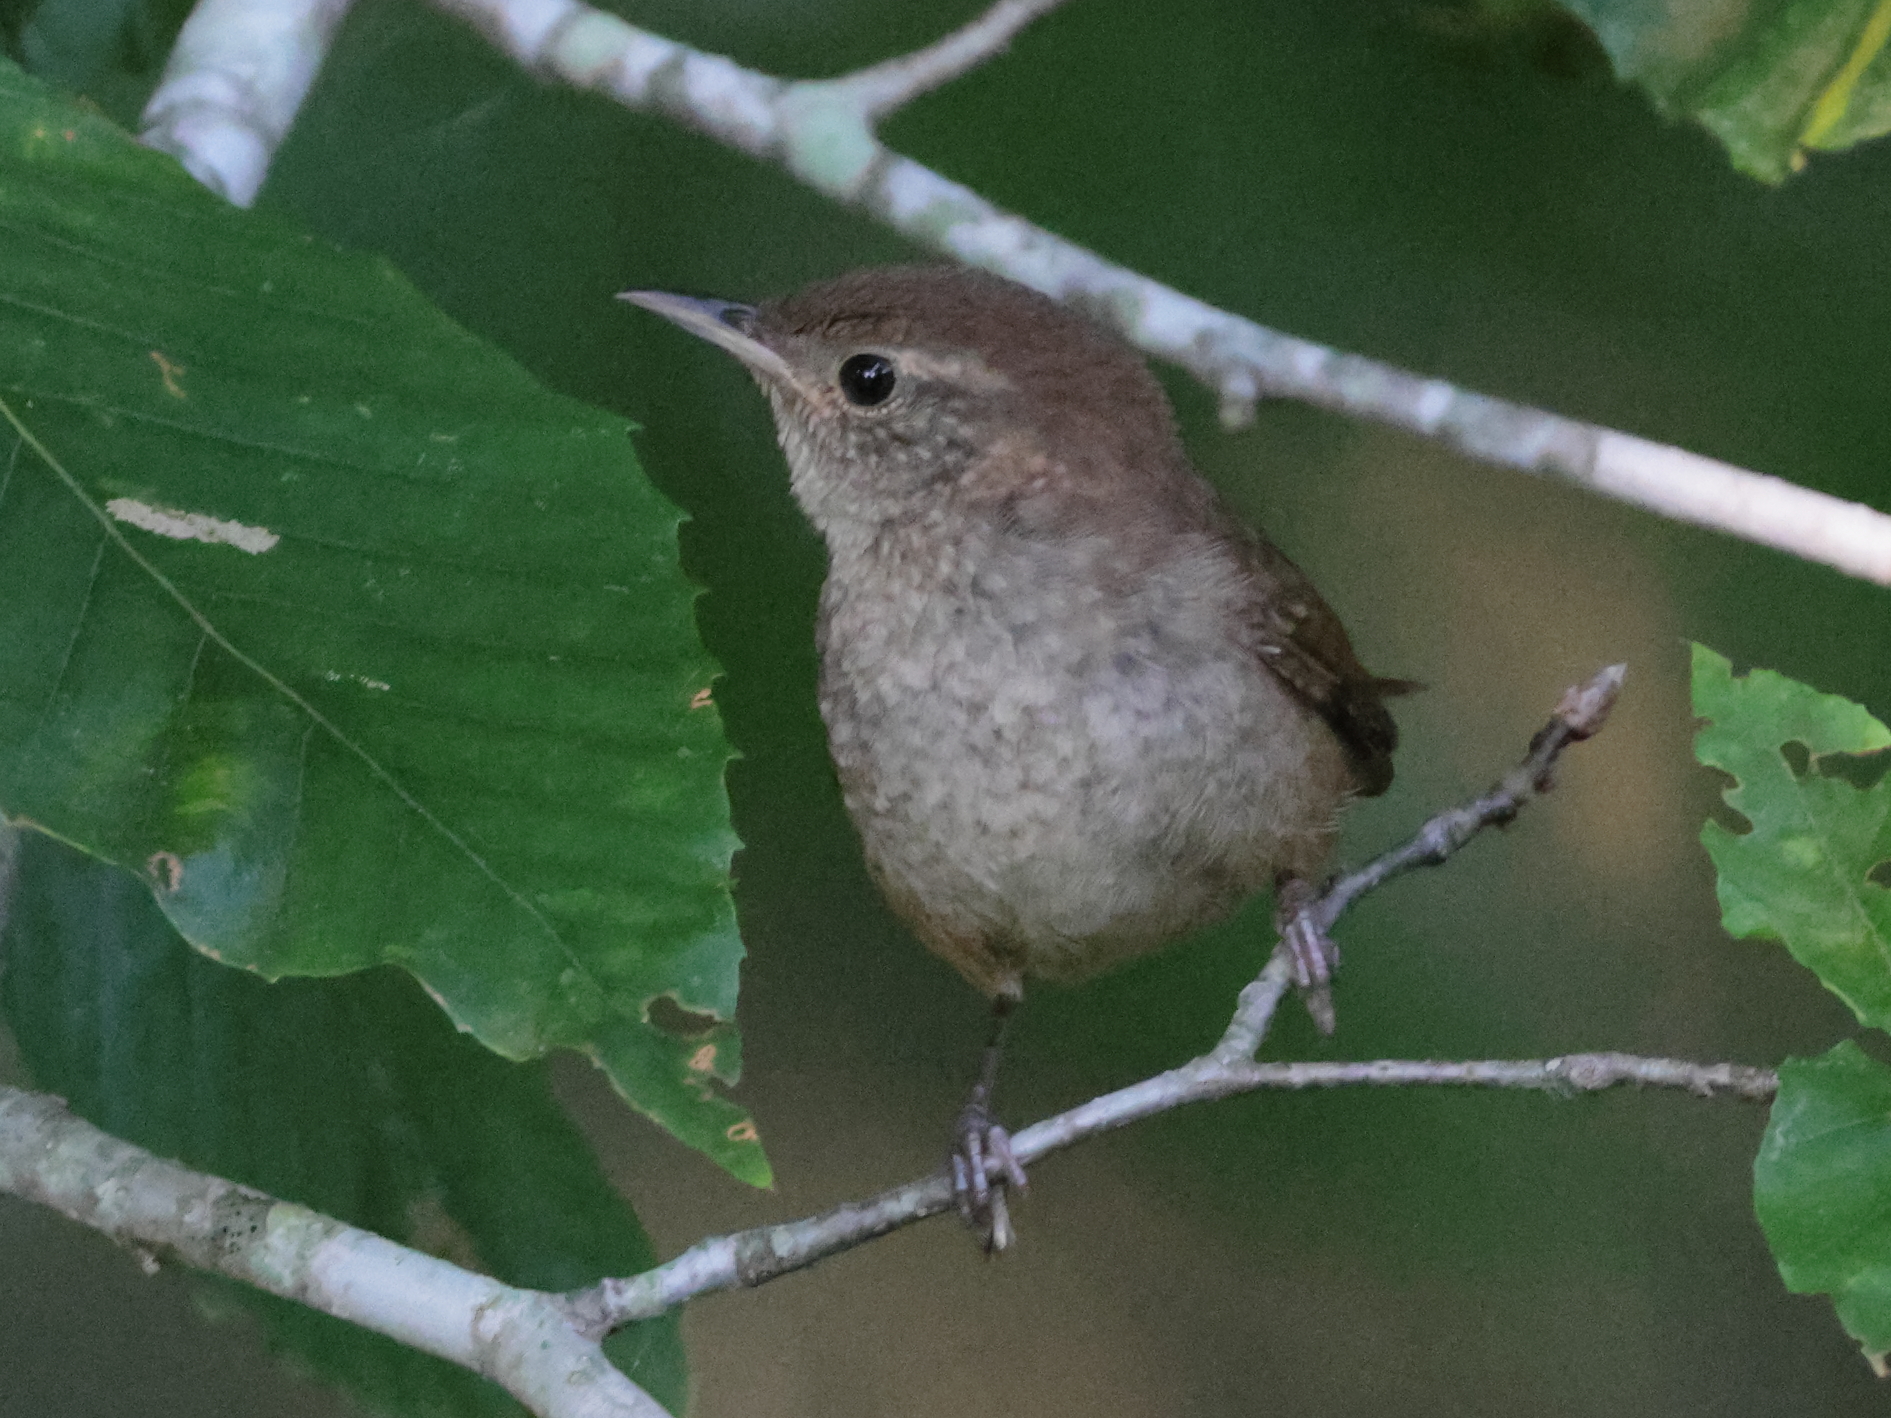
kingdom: Animalia
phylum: Chordata
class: Aves
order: Passeriformes
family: Troglodytidae
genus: Troglodytes
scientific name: Troglodytes aedon
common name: House wren
